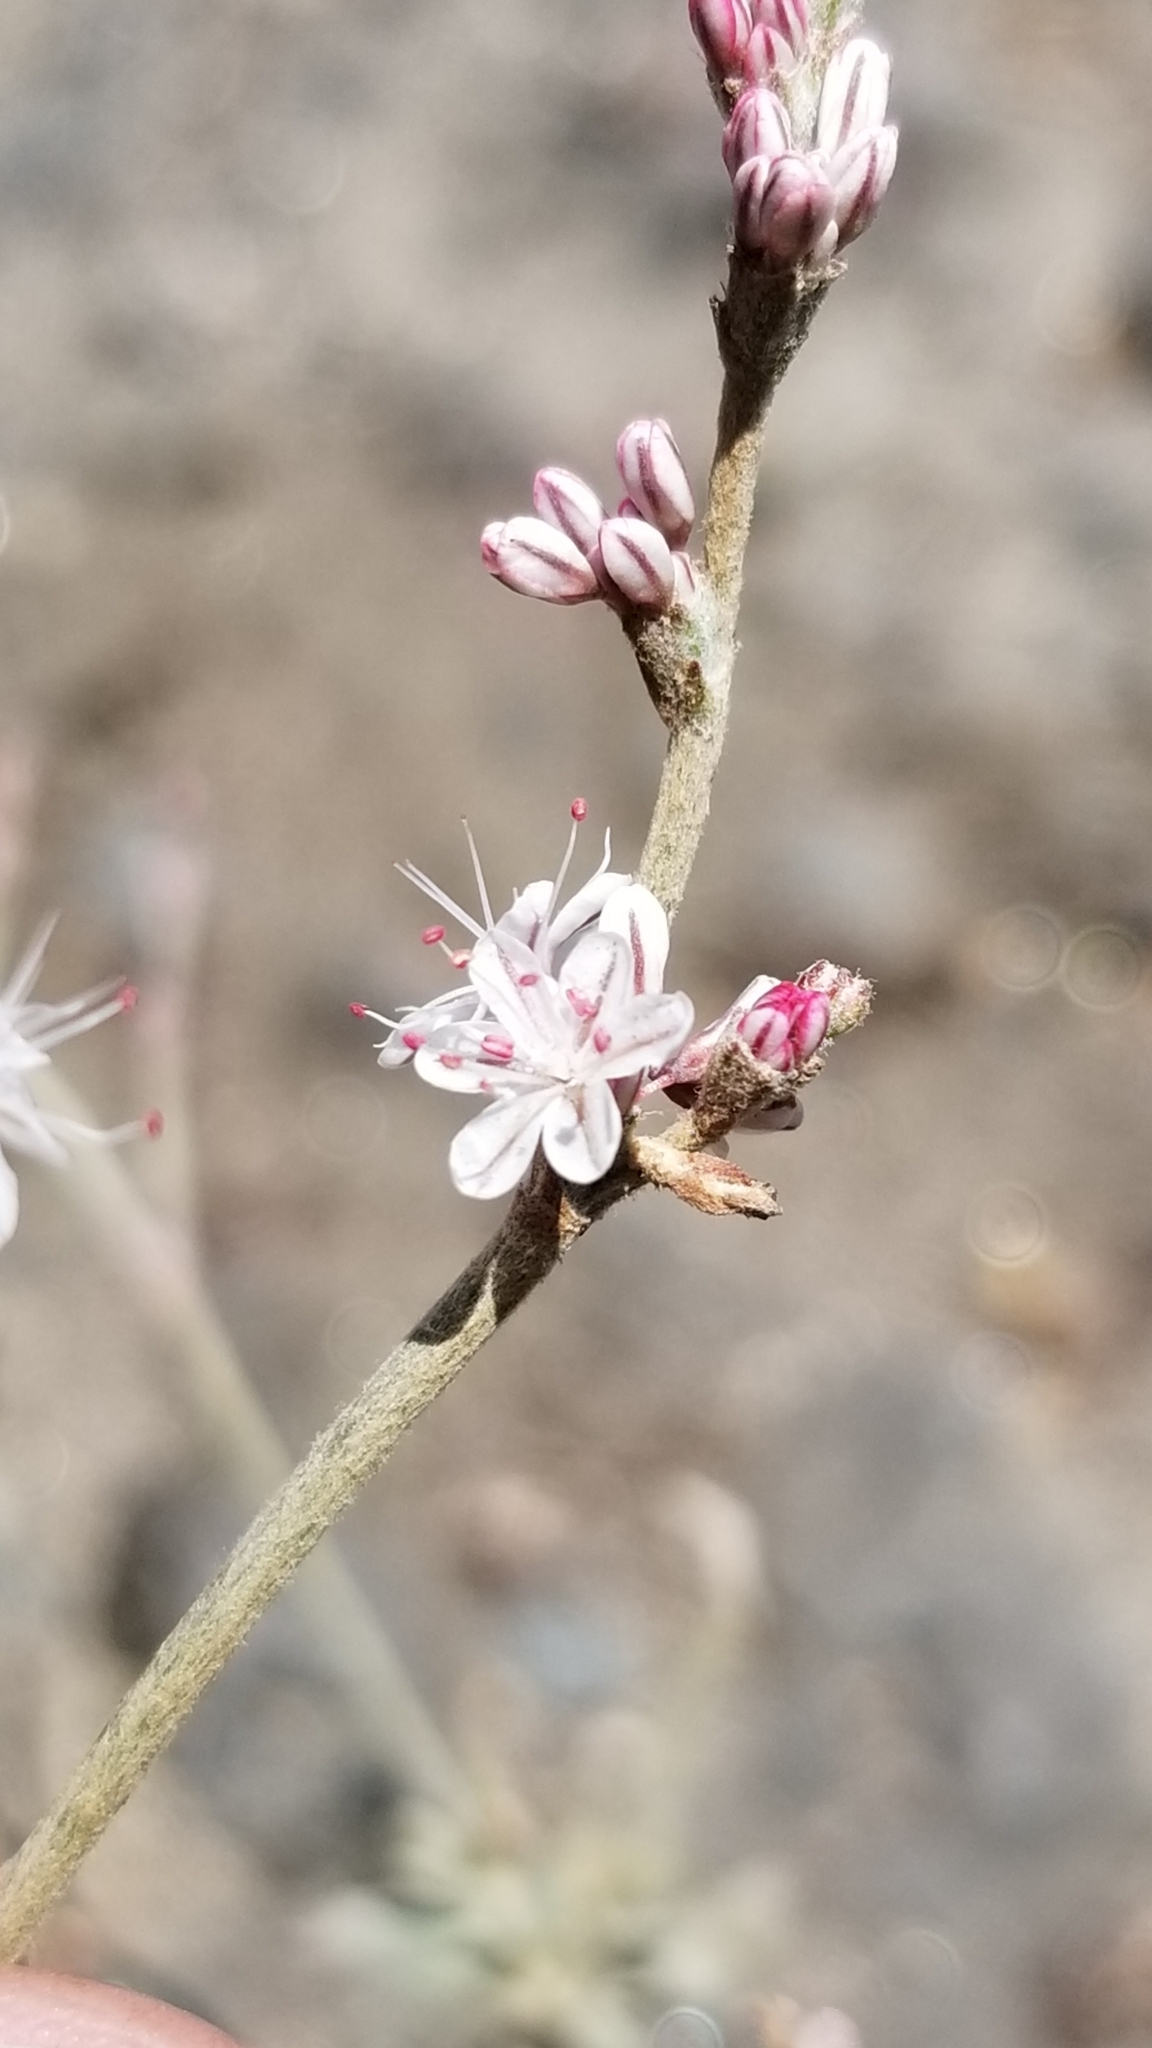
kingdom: Plantae
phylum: Tracheophyta
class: Magnoliopsida
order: Caryophyllales
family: Polygonaceae
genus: Eriogonum
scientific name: Eriogonum wrightii
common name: Bastard-sage
